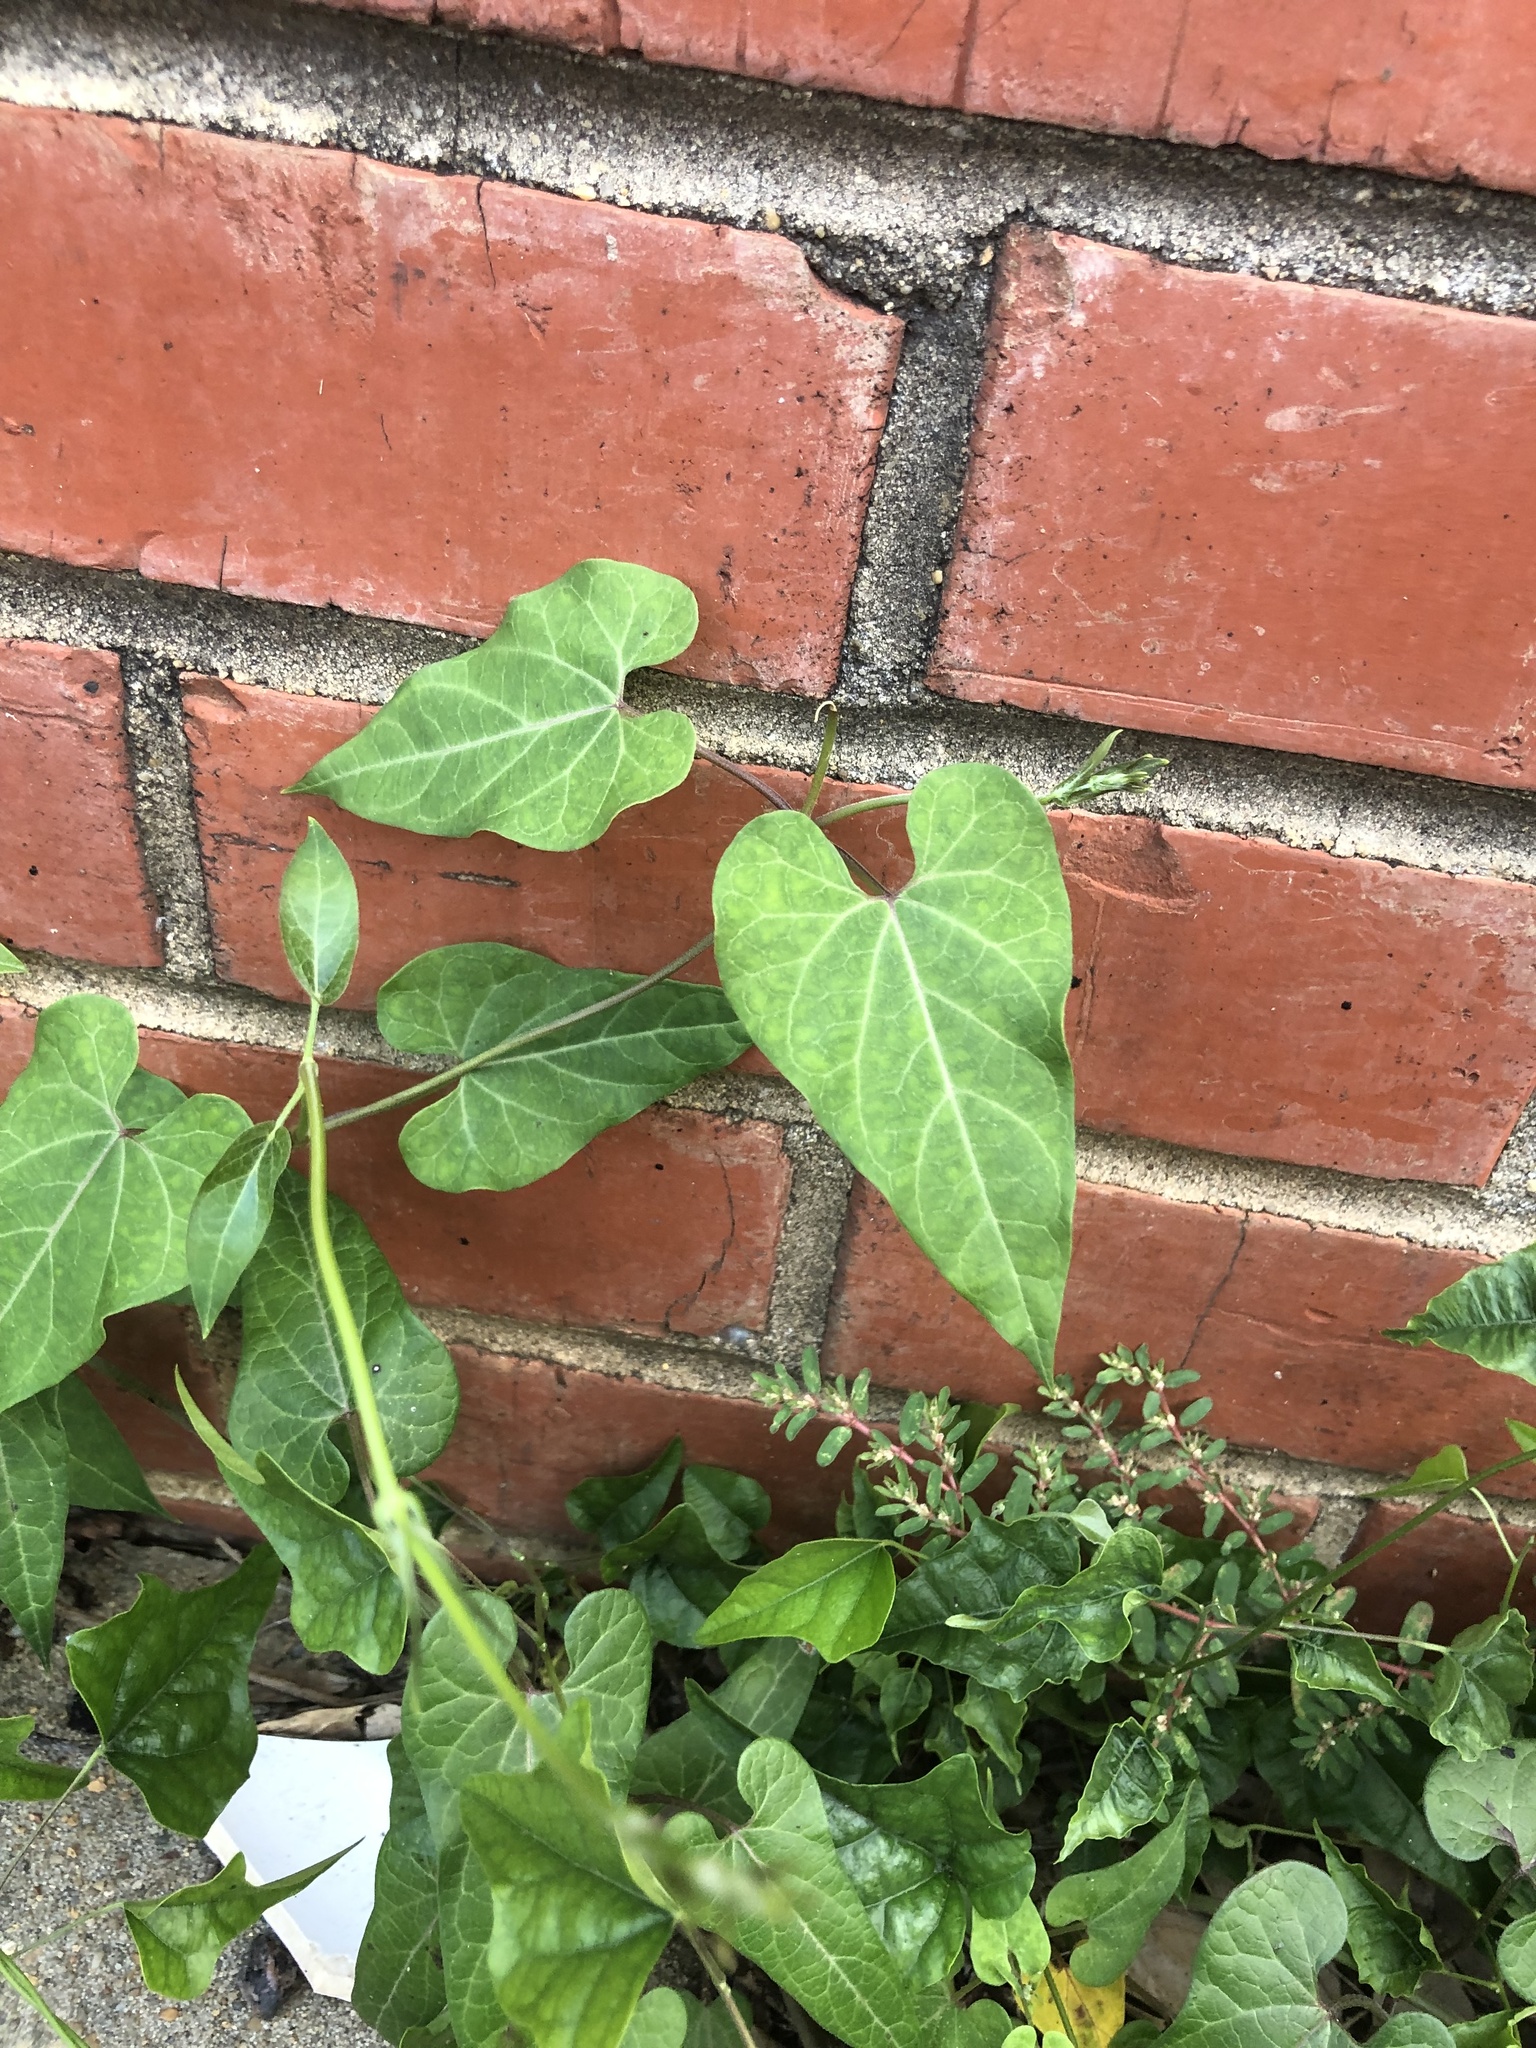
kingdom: Plantae
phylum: Tracheophyta
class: Magnoliopsida
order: Gentianales
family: Apocynaceae
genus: Cynanchum
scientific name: Cynanchum laeve
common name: Sandvine
